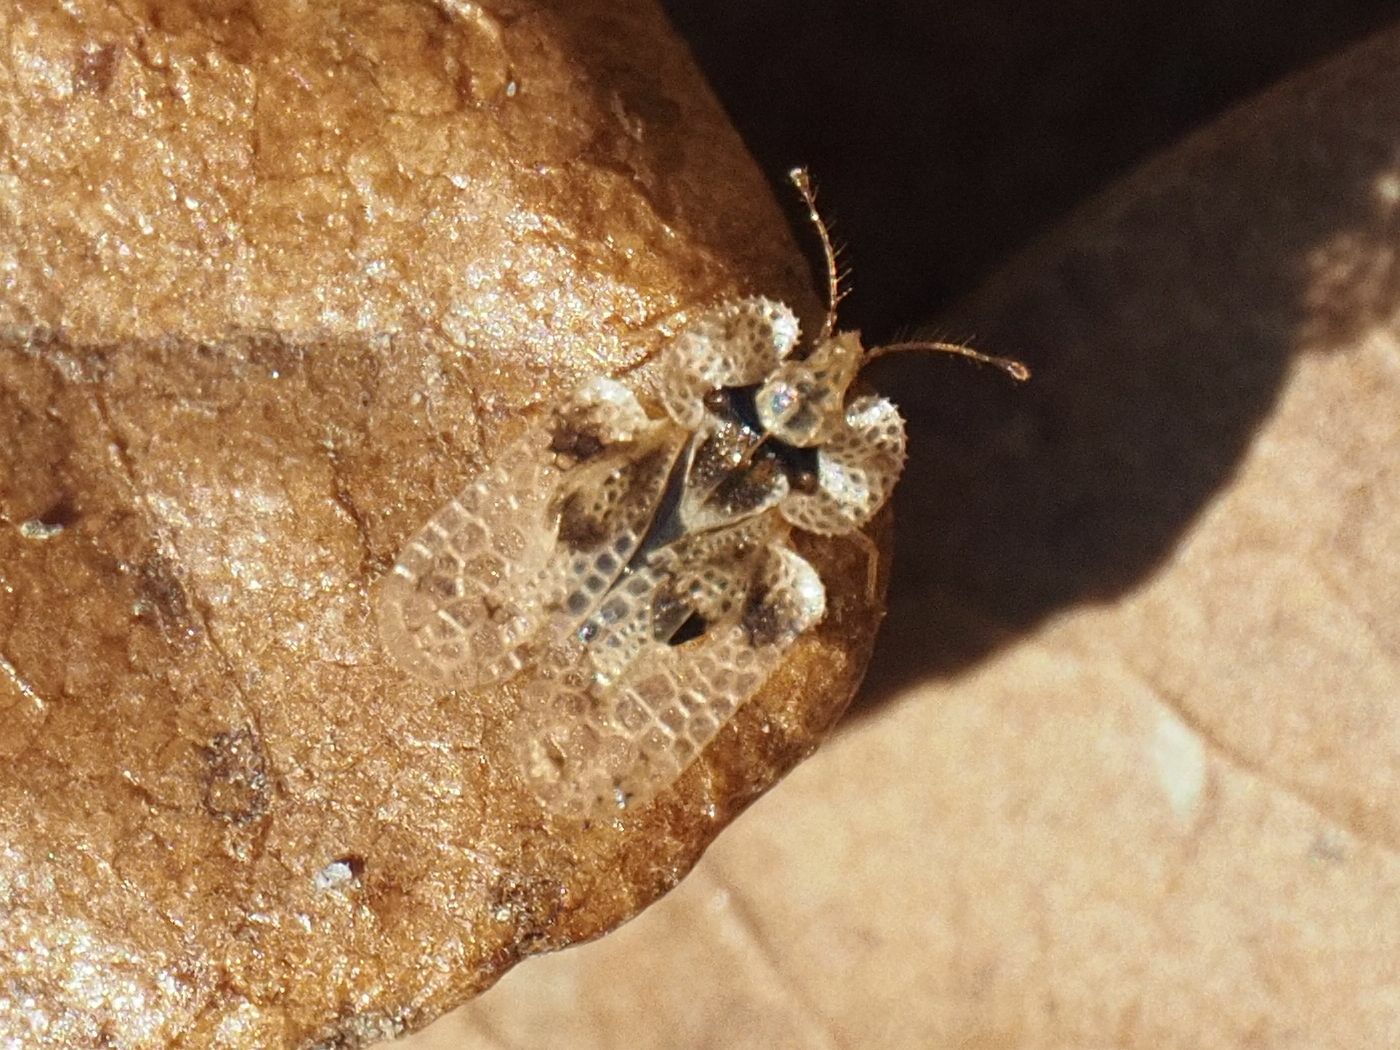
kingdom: Animalia
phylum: Arthropoda
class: Insecta
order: Hemiptera
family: Tingidae
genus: Corythucha
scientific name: Corythucha arcuata
